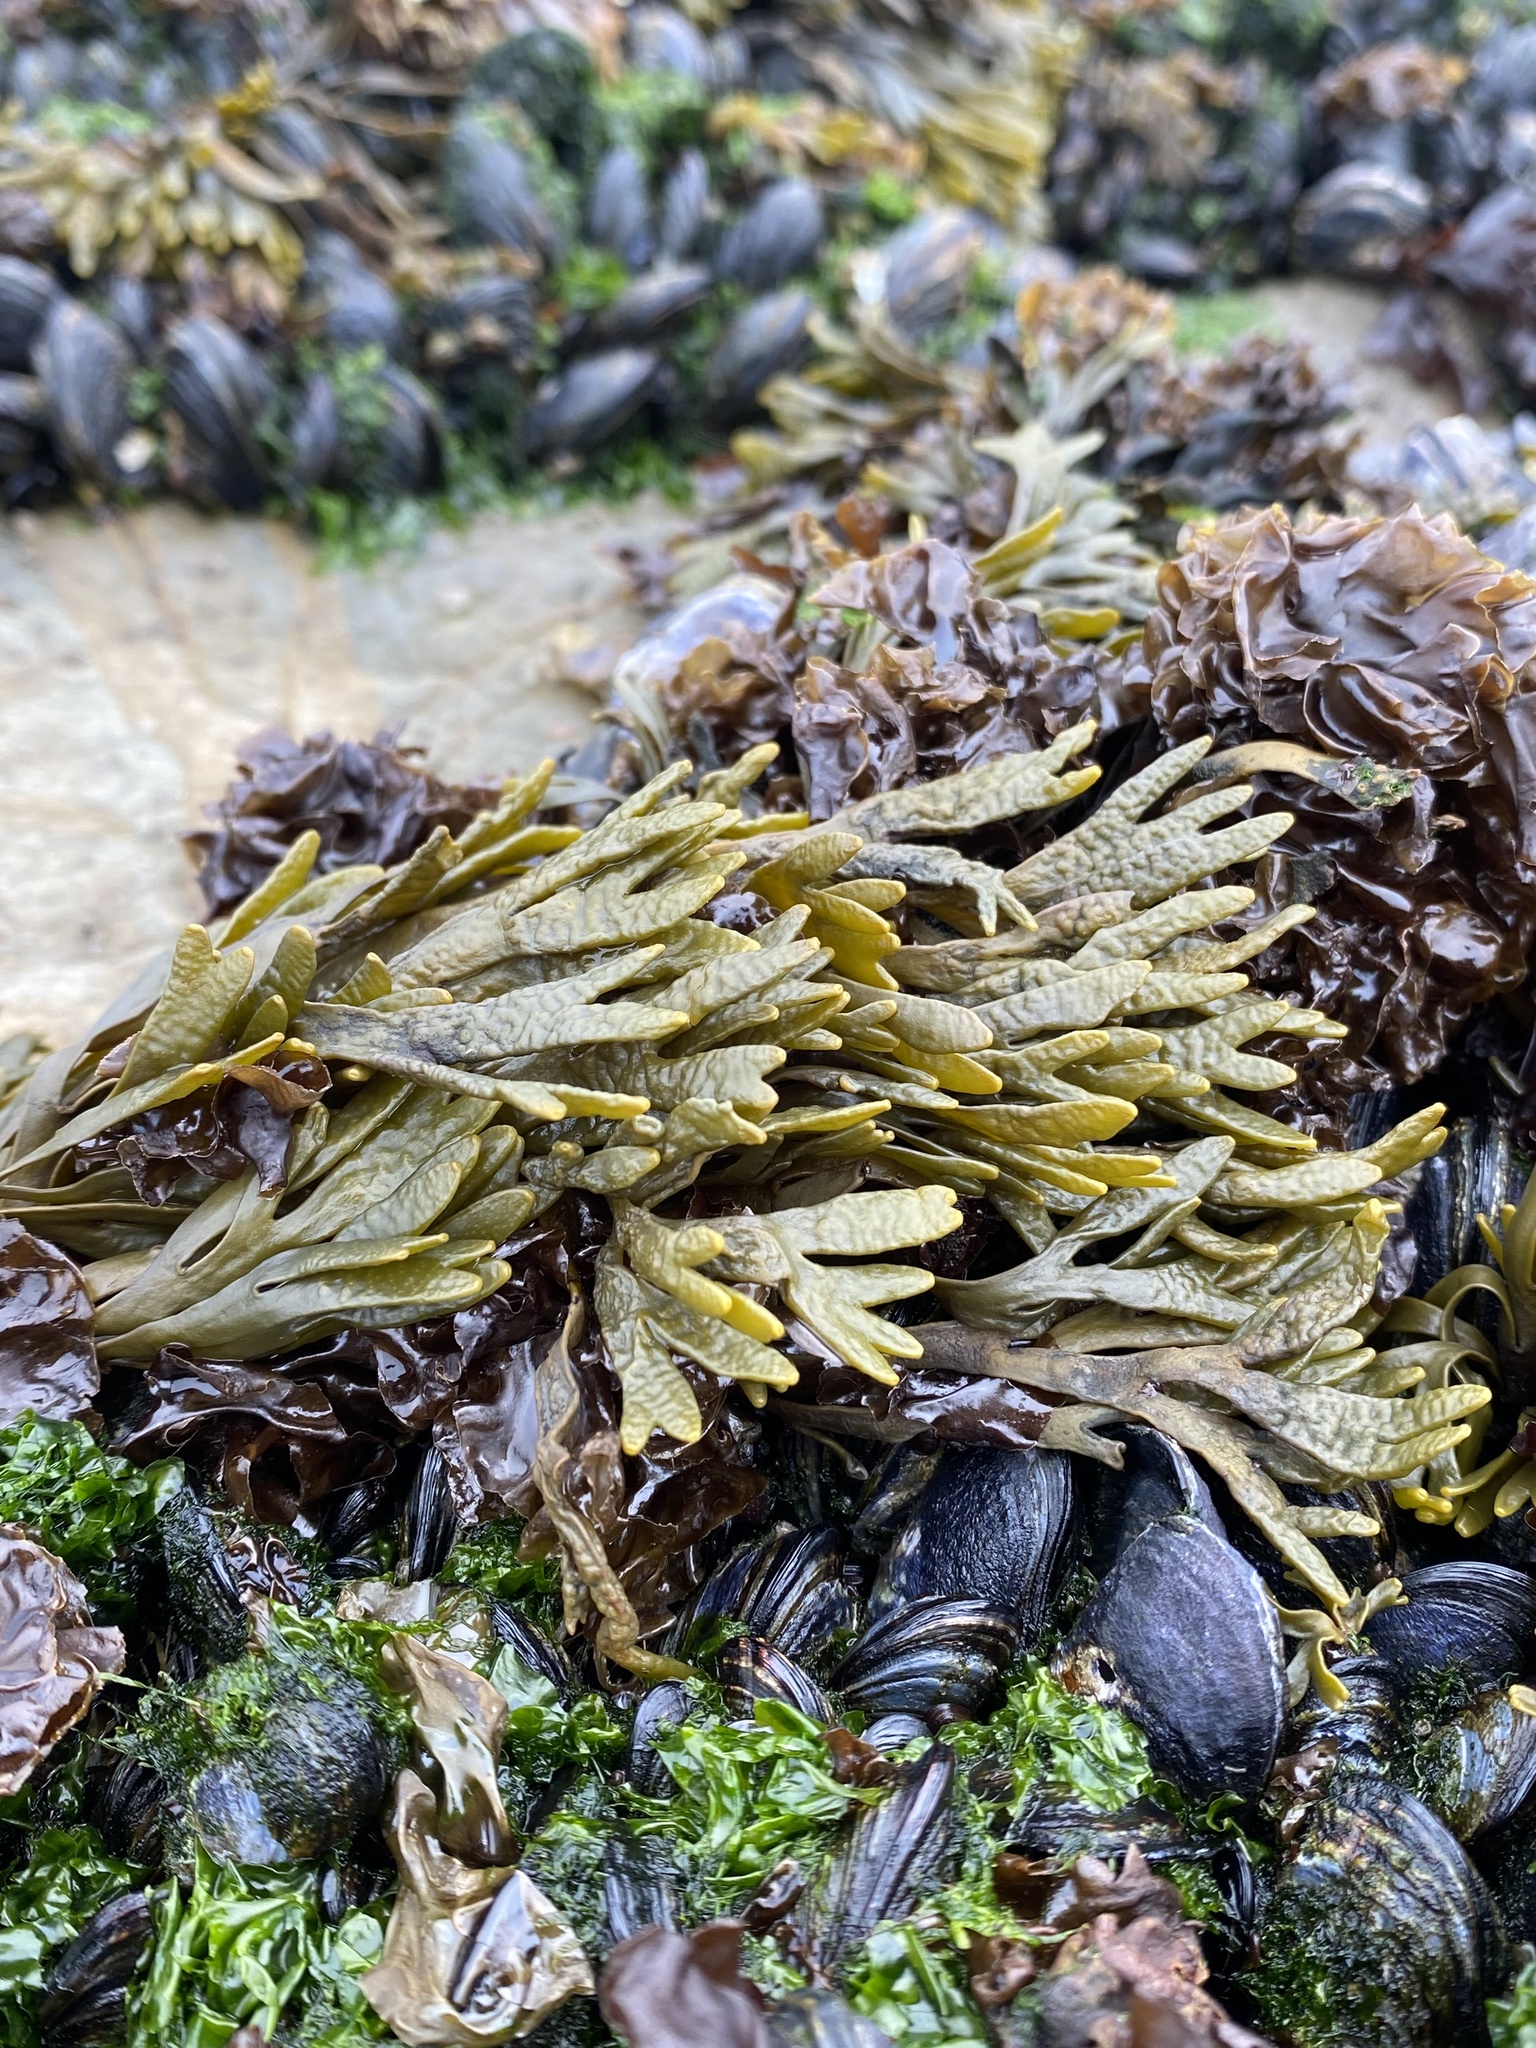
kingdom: Chromista
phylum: Ochrophyta
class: Phaeophyceae
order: Fucales
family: Fucaceae
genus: Pelvetiopsis
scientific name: Pelvetiopsis limitata
